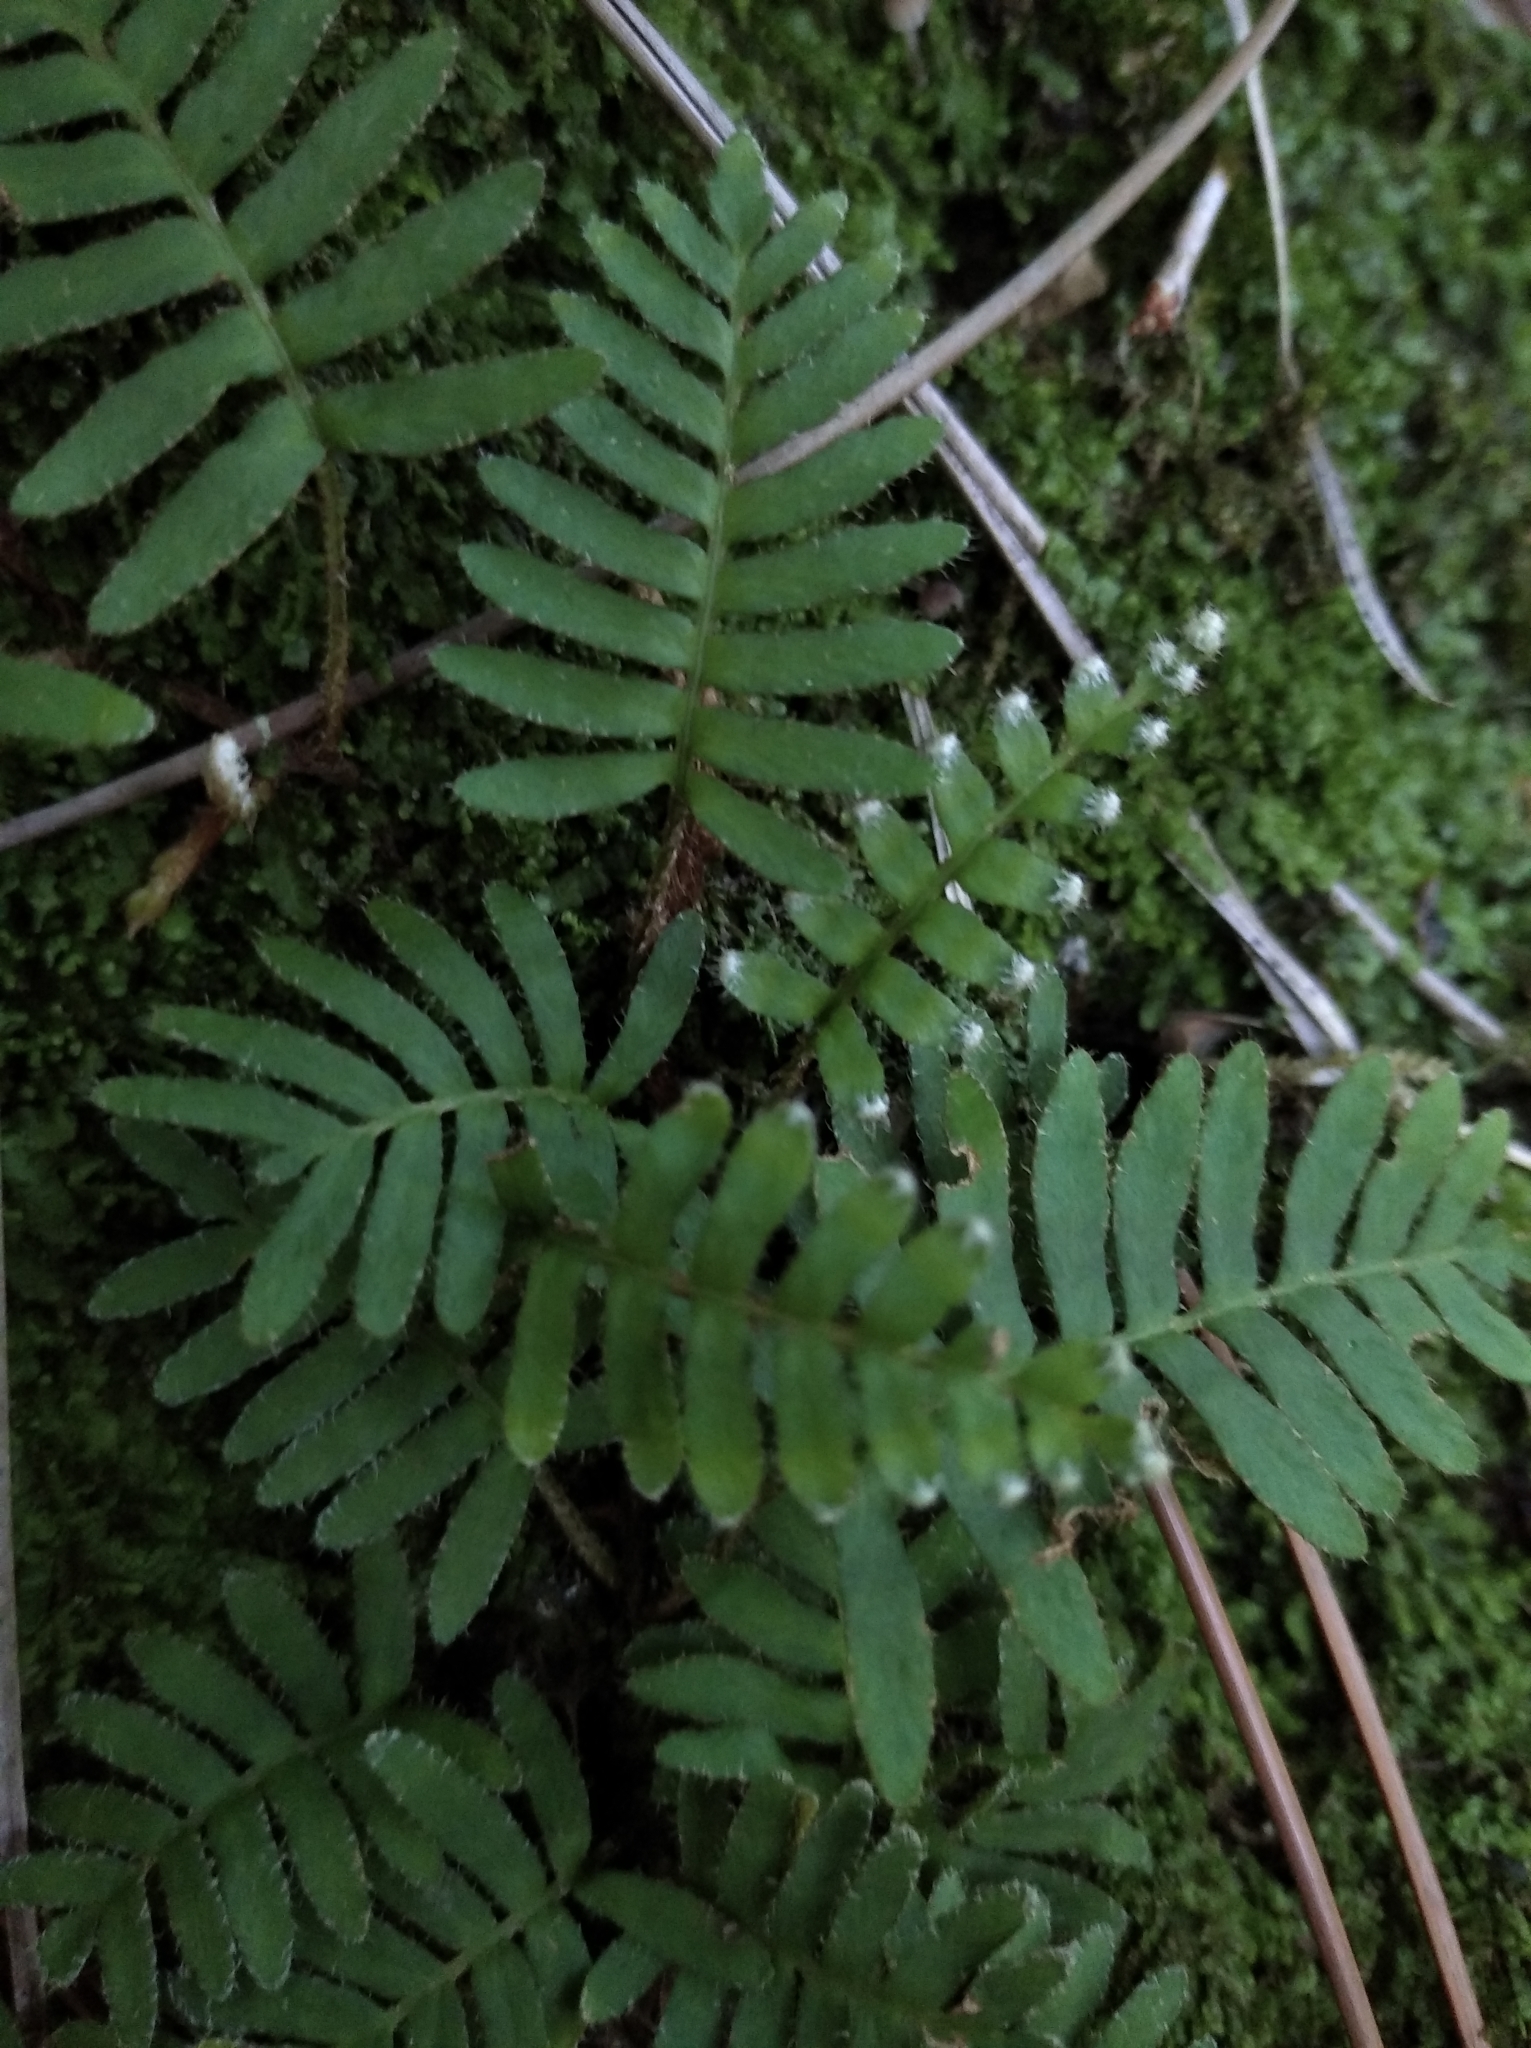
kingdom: Plantae
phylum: Tracheophyta
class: Polypodiopsida
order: Polypodiales
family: Polypodiaceae
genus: Pleopeltis
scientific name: Pleopeltis minima
